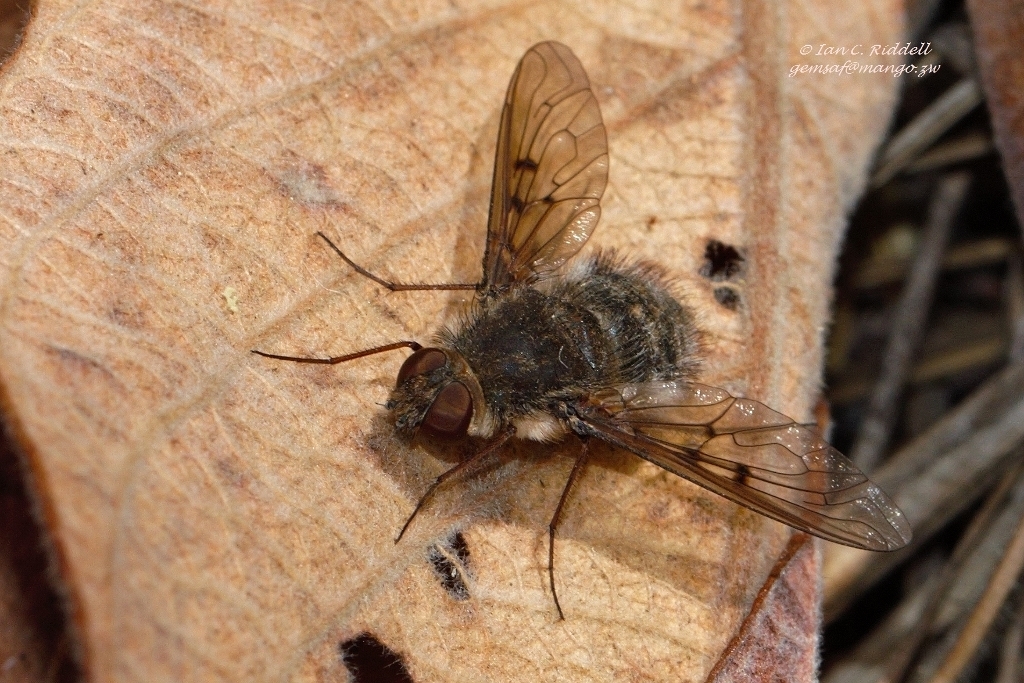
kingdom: Animalia
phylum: Arthropoda
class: Insecta
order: Diptera
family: Bombyliidae
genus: Spogostylum
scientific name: Spogostylum incisurale
